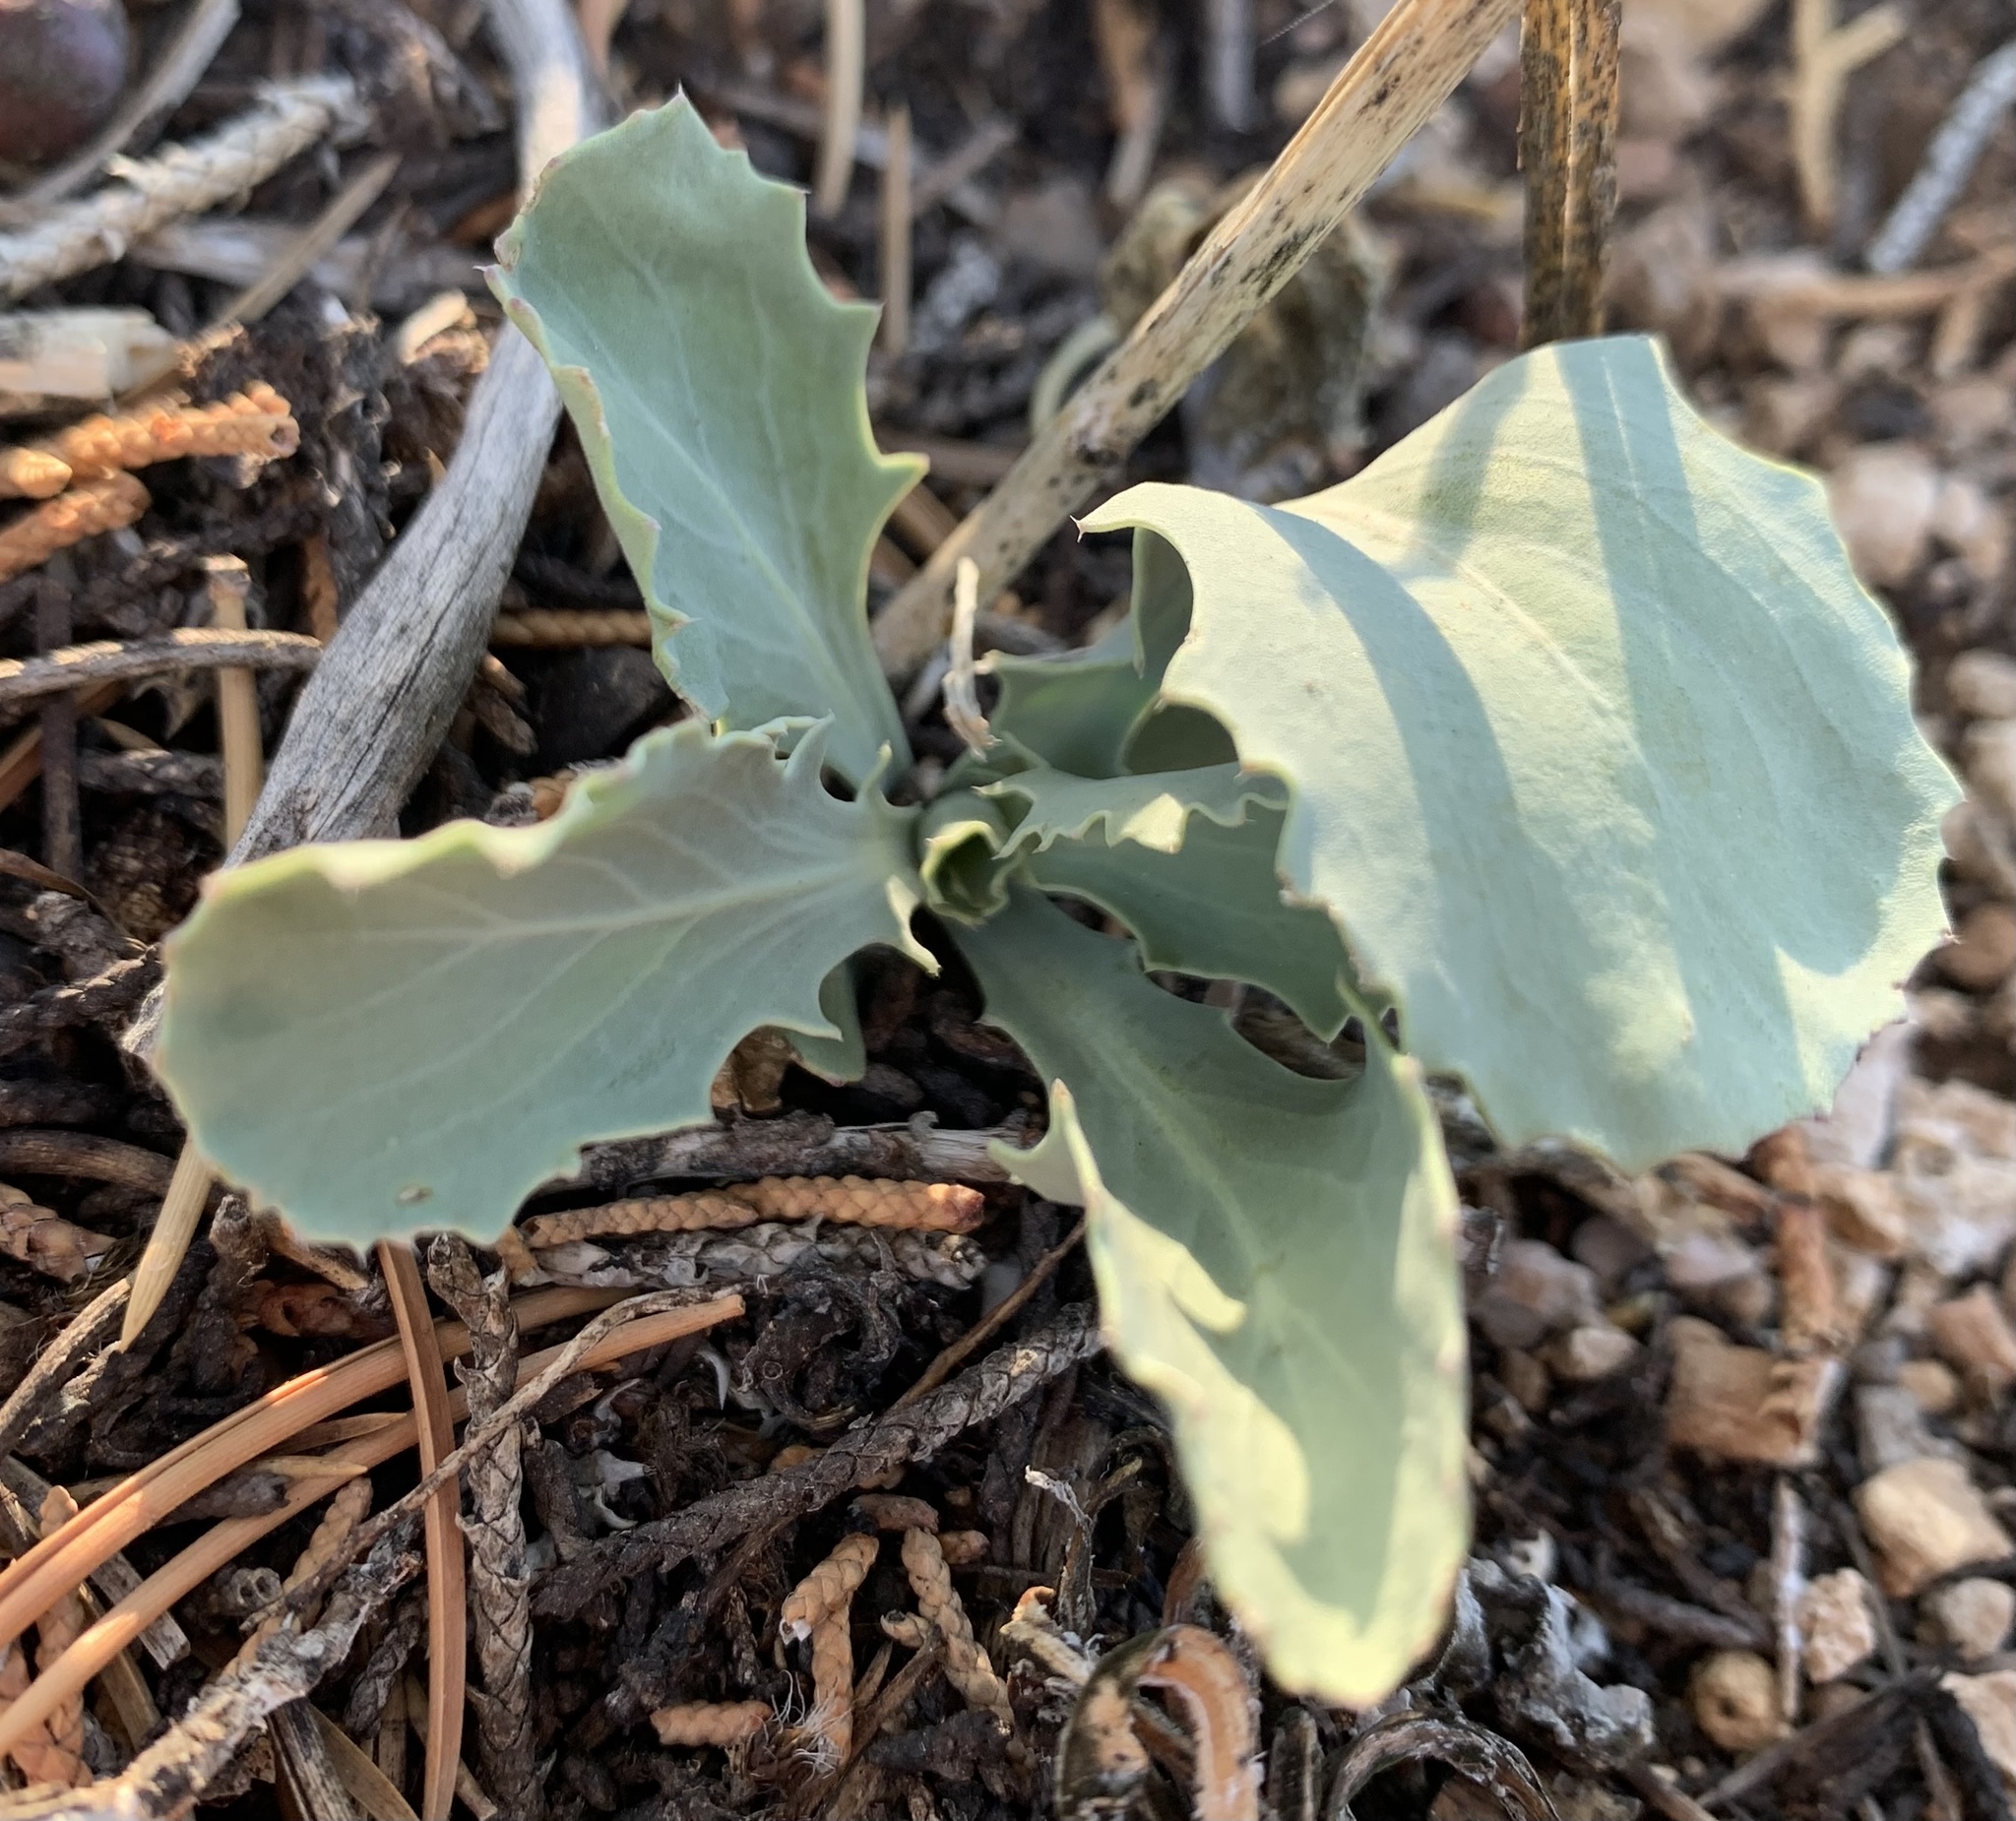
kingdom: Plantae
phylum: Tracheophyta
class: Magnoliopsida
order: Brassicales
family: Brassicaceae
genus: Streptanthus
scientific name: Streptanthus cordatus
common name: Heart-leaf jewel-flower
